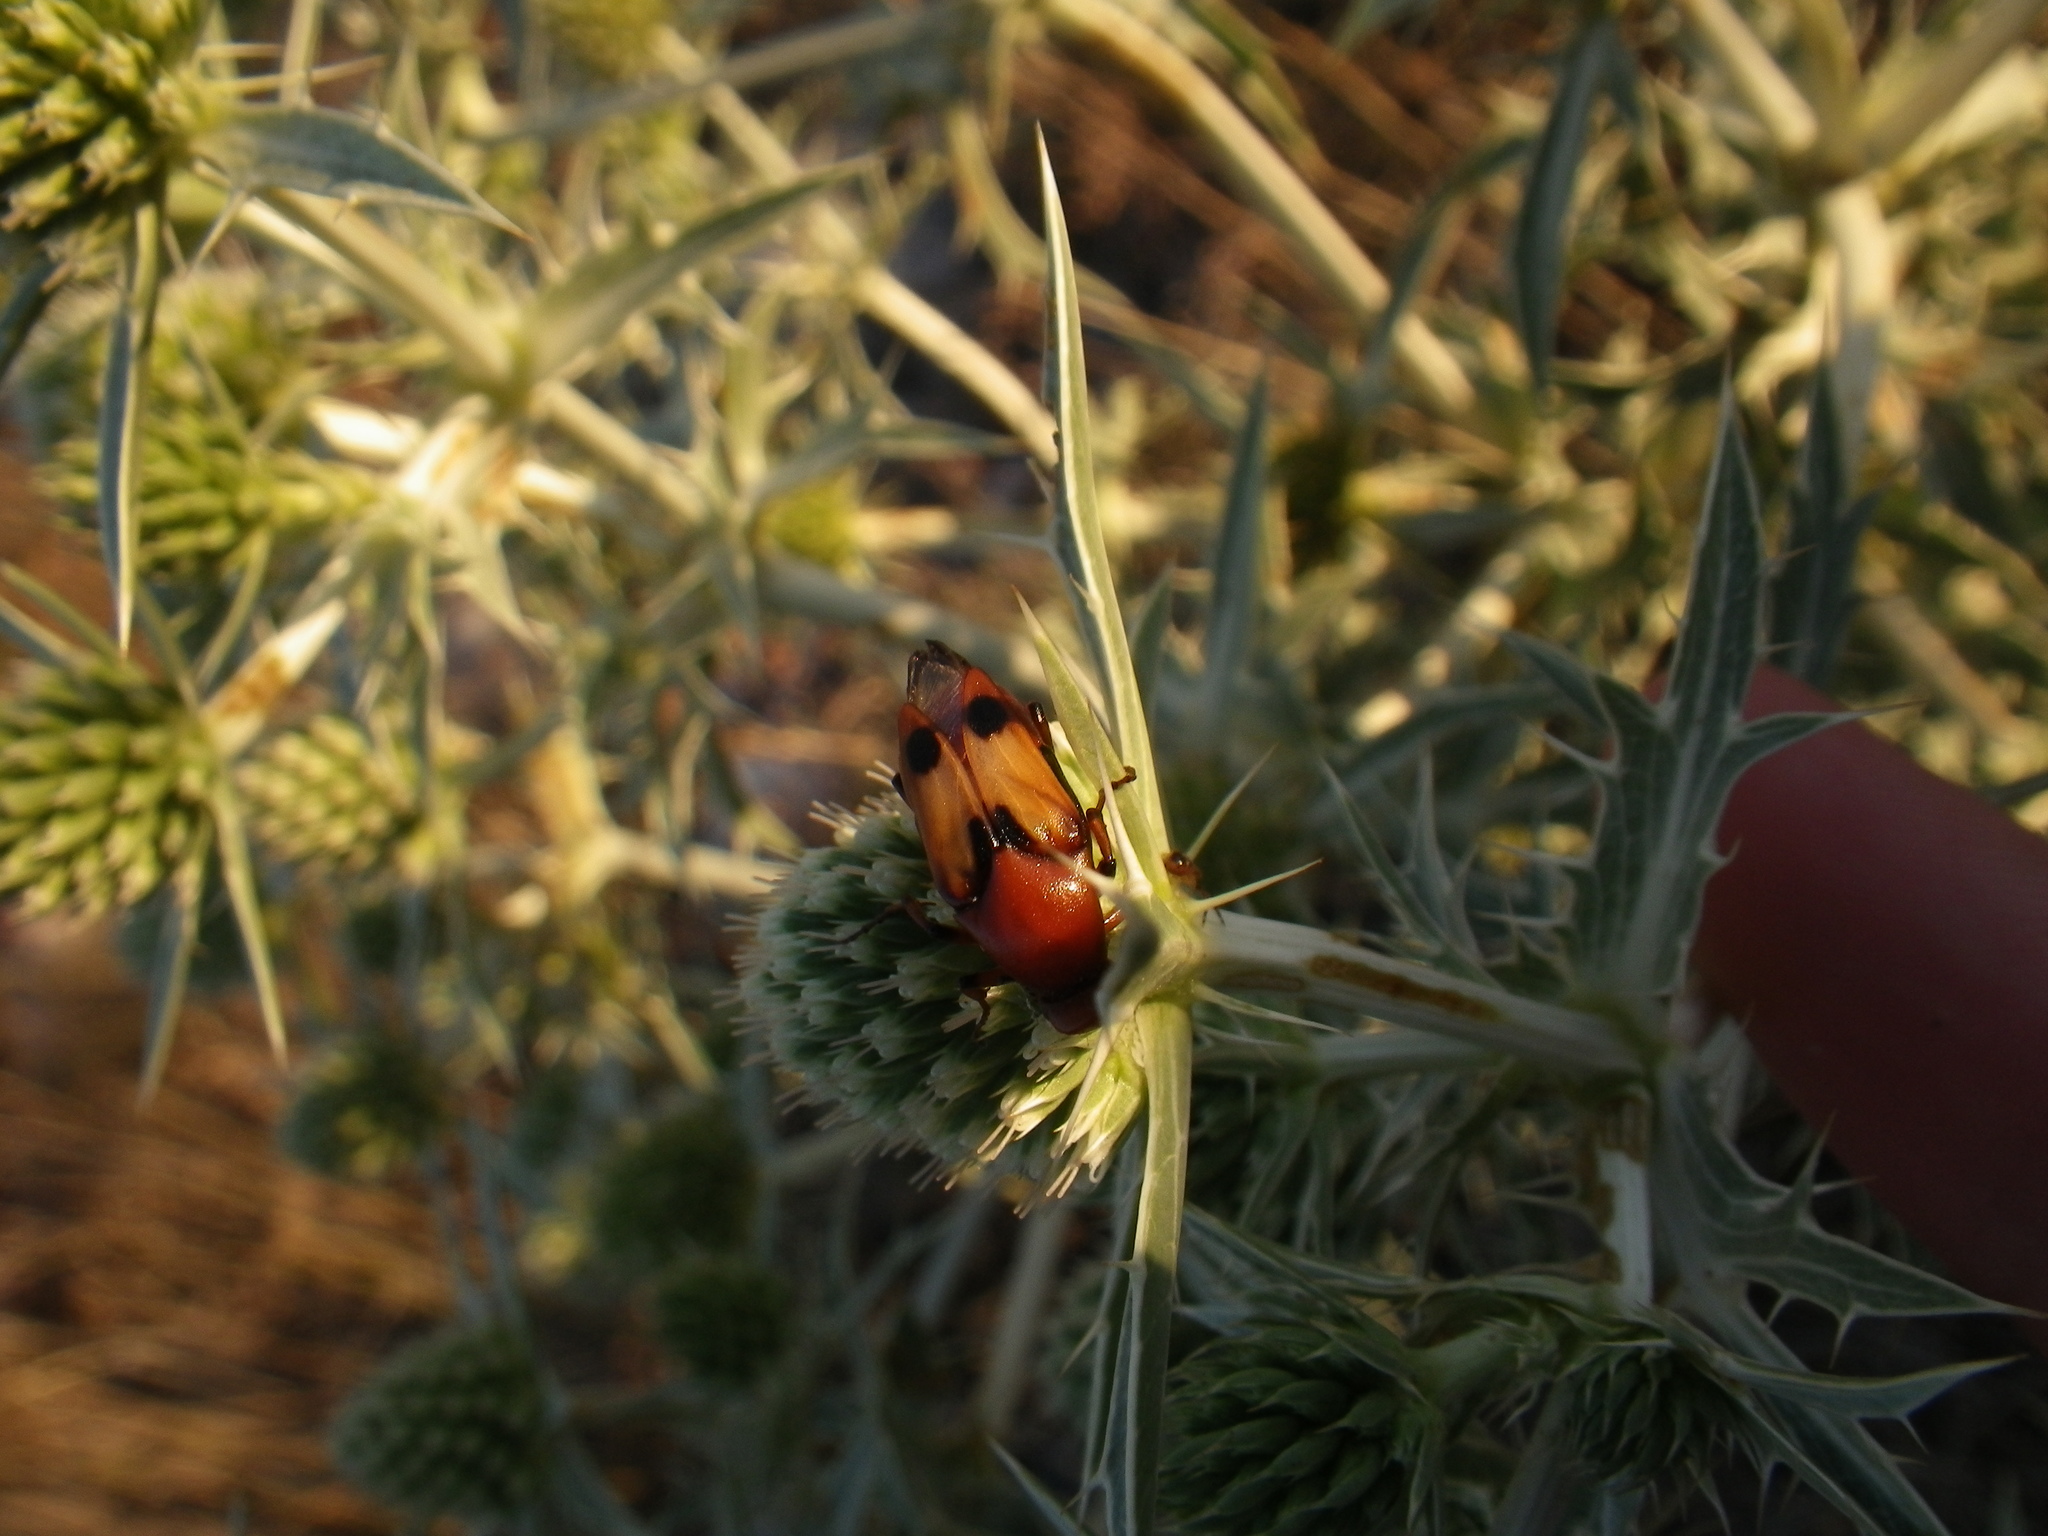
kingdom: Animalia
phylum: Arthropoda
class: Insecta
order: Coleoptera
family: Ripiphoridae
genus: Macrosiagon
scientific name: Macrosiagon bimaculata
